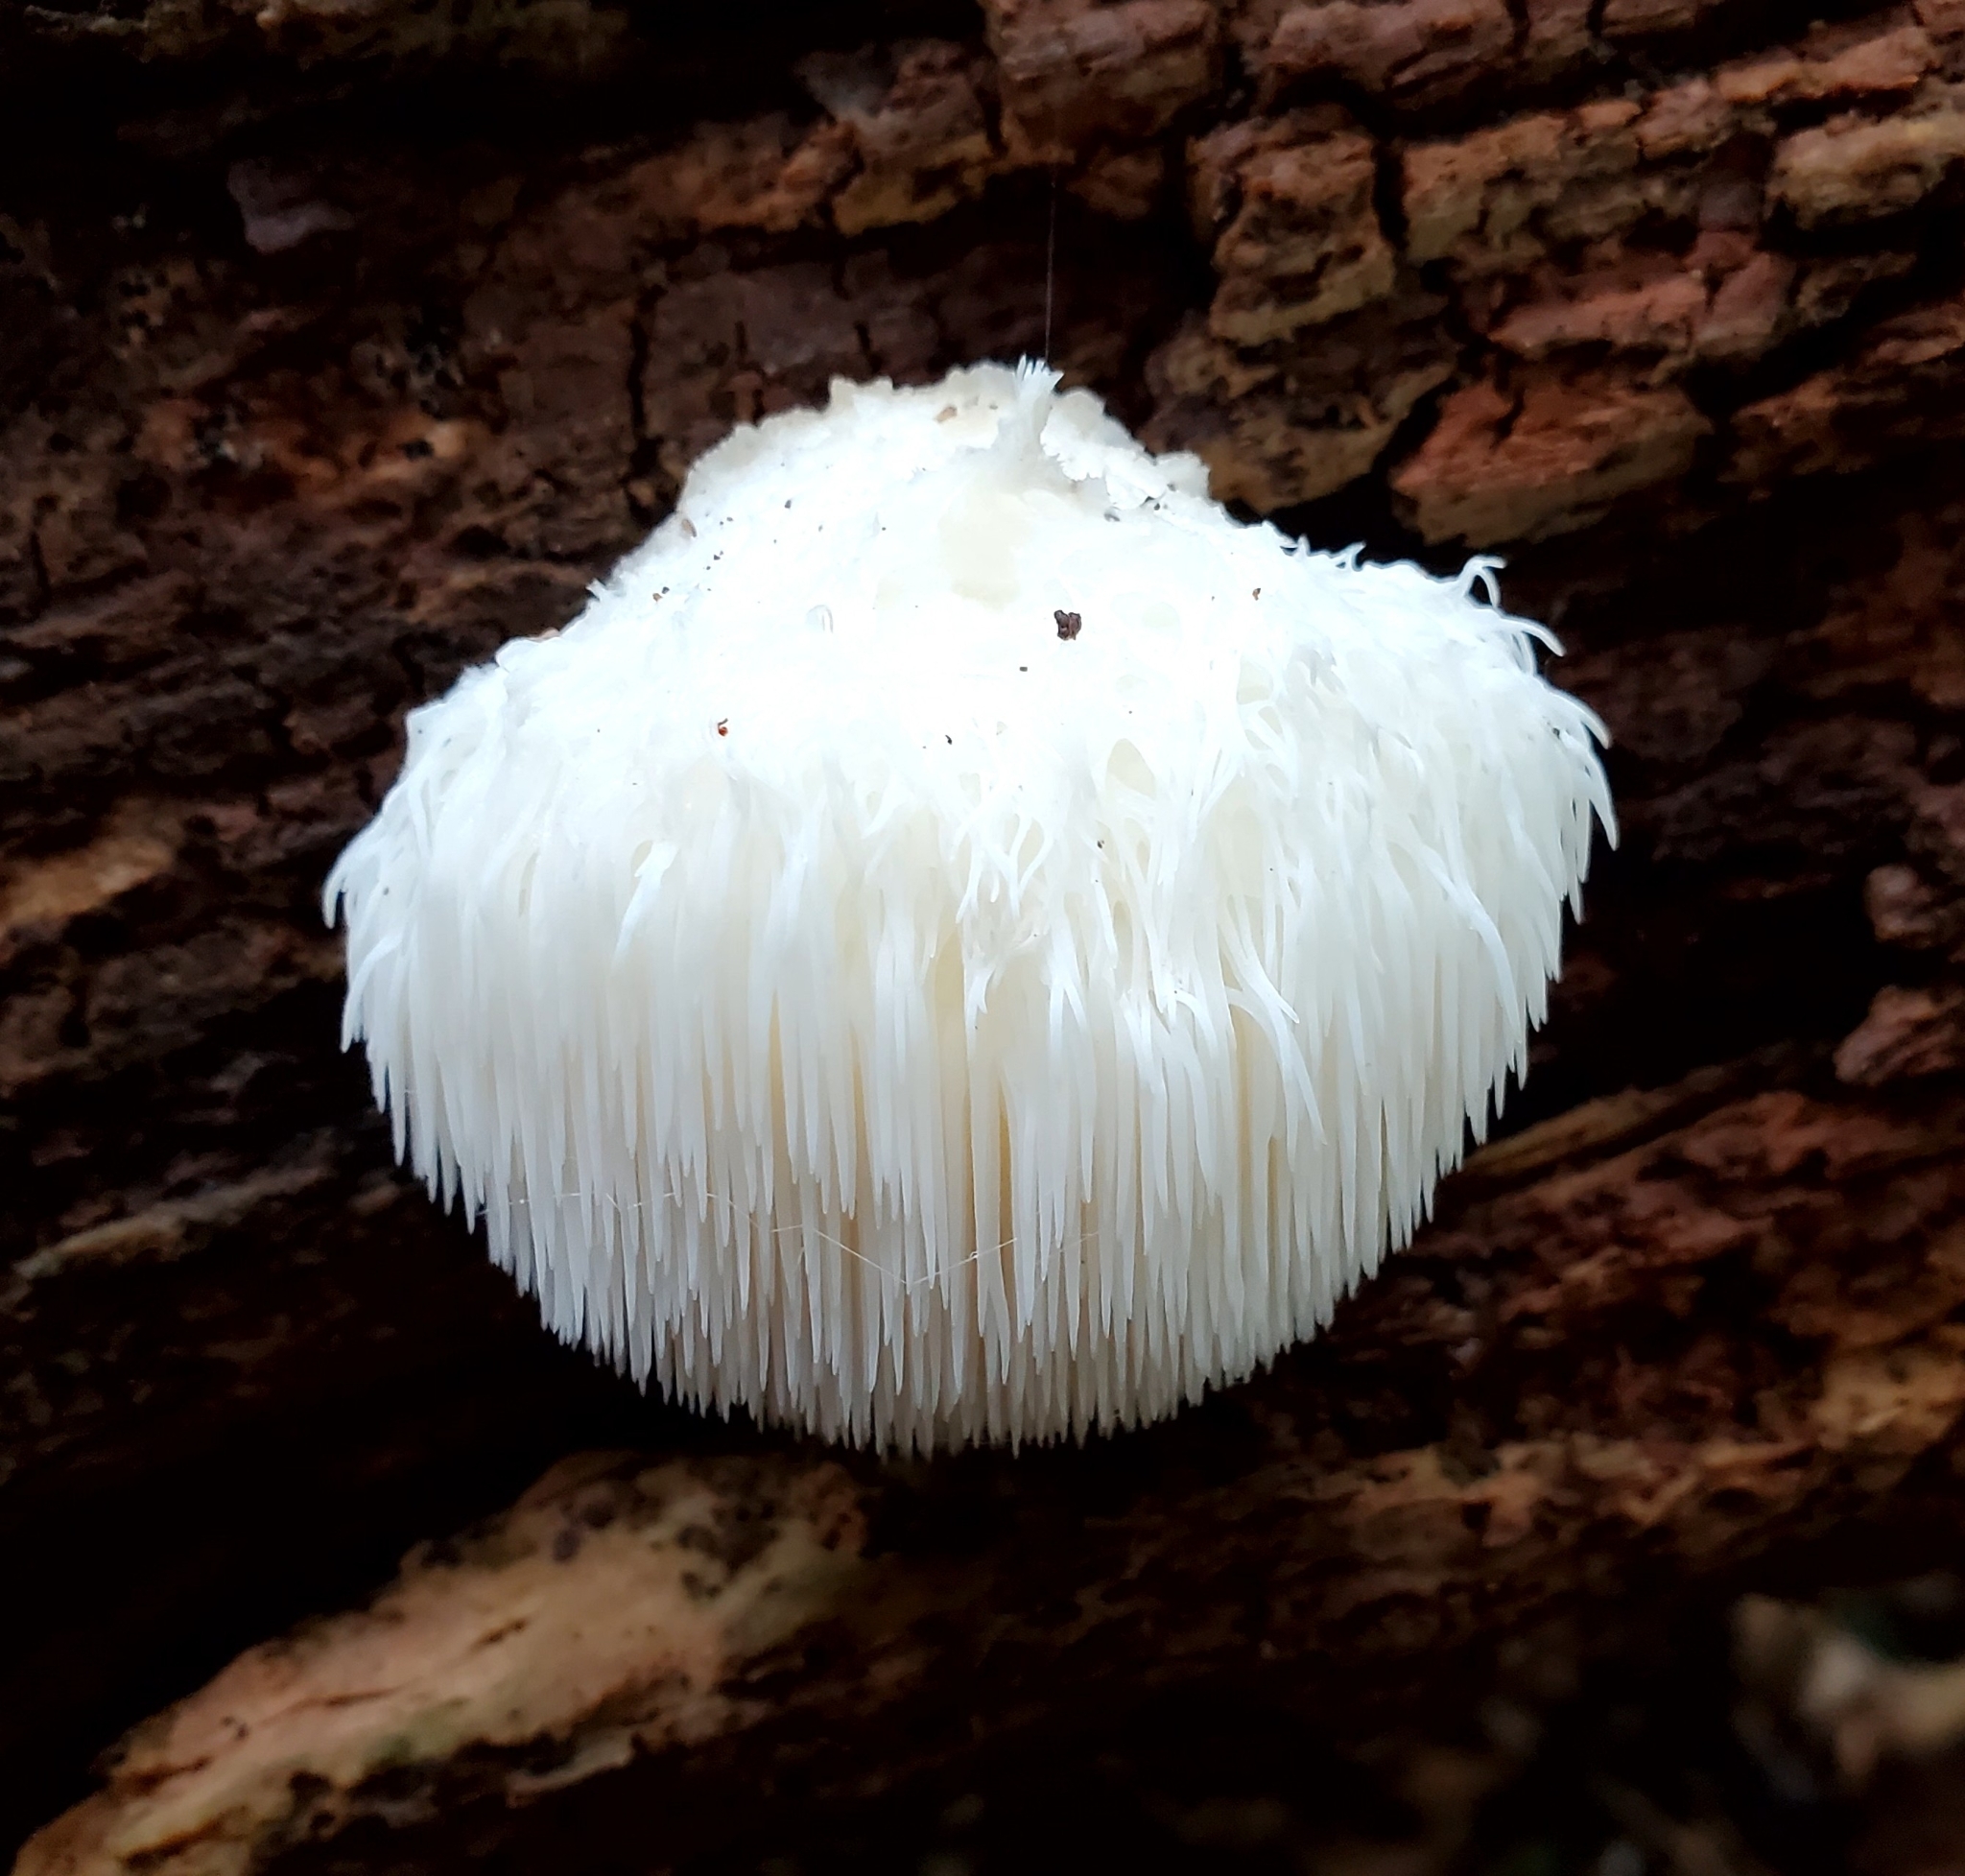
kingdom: Fungi
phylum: Basidiomycota
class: Agaricomycetes
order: Russulales
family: Hericiaceae
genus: Hericium
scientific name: Hericium erinaceus
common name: Bearded tooth
